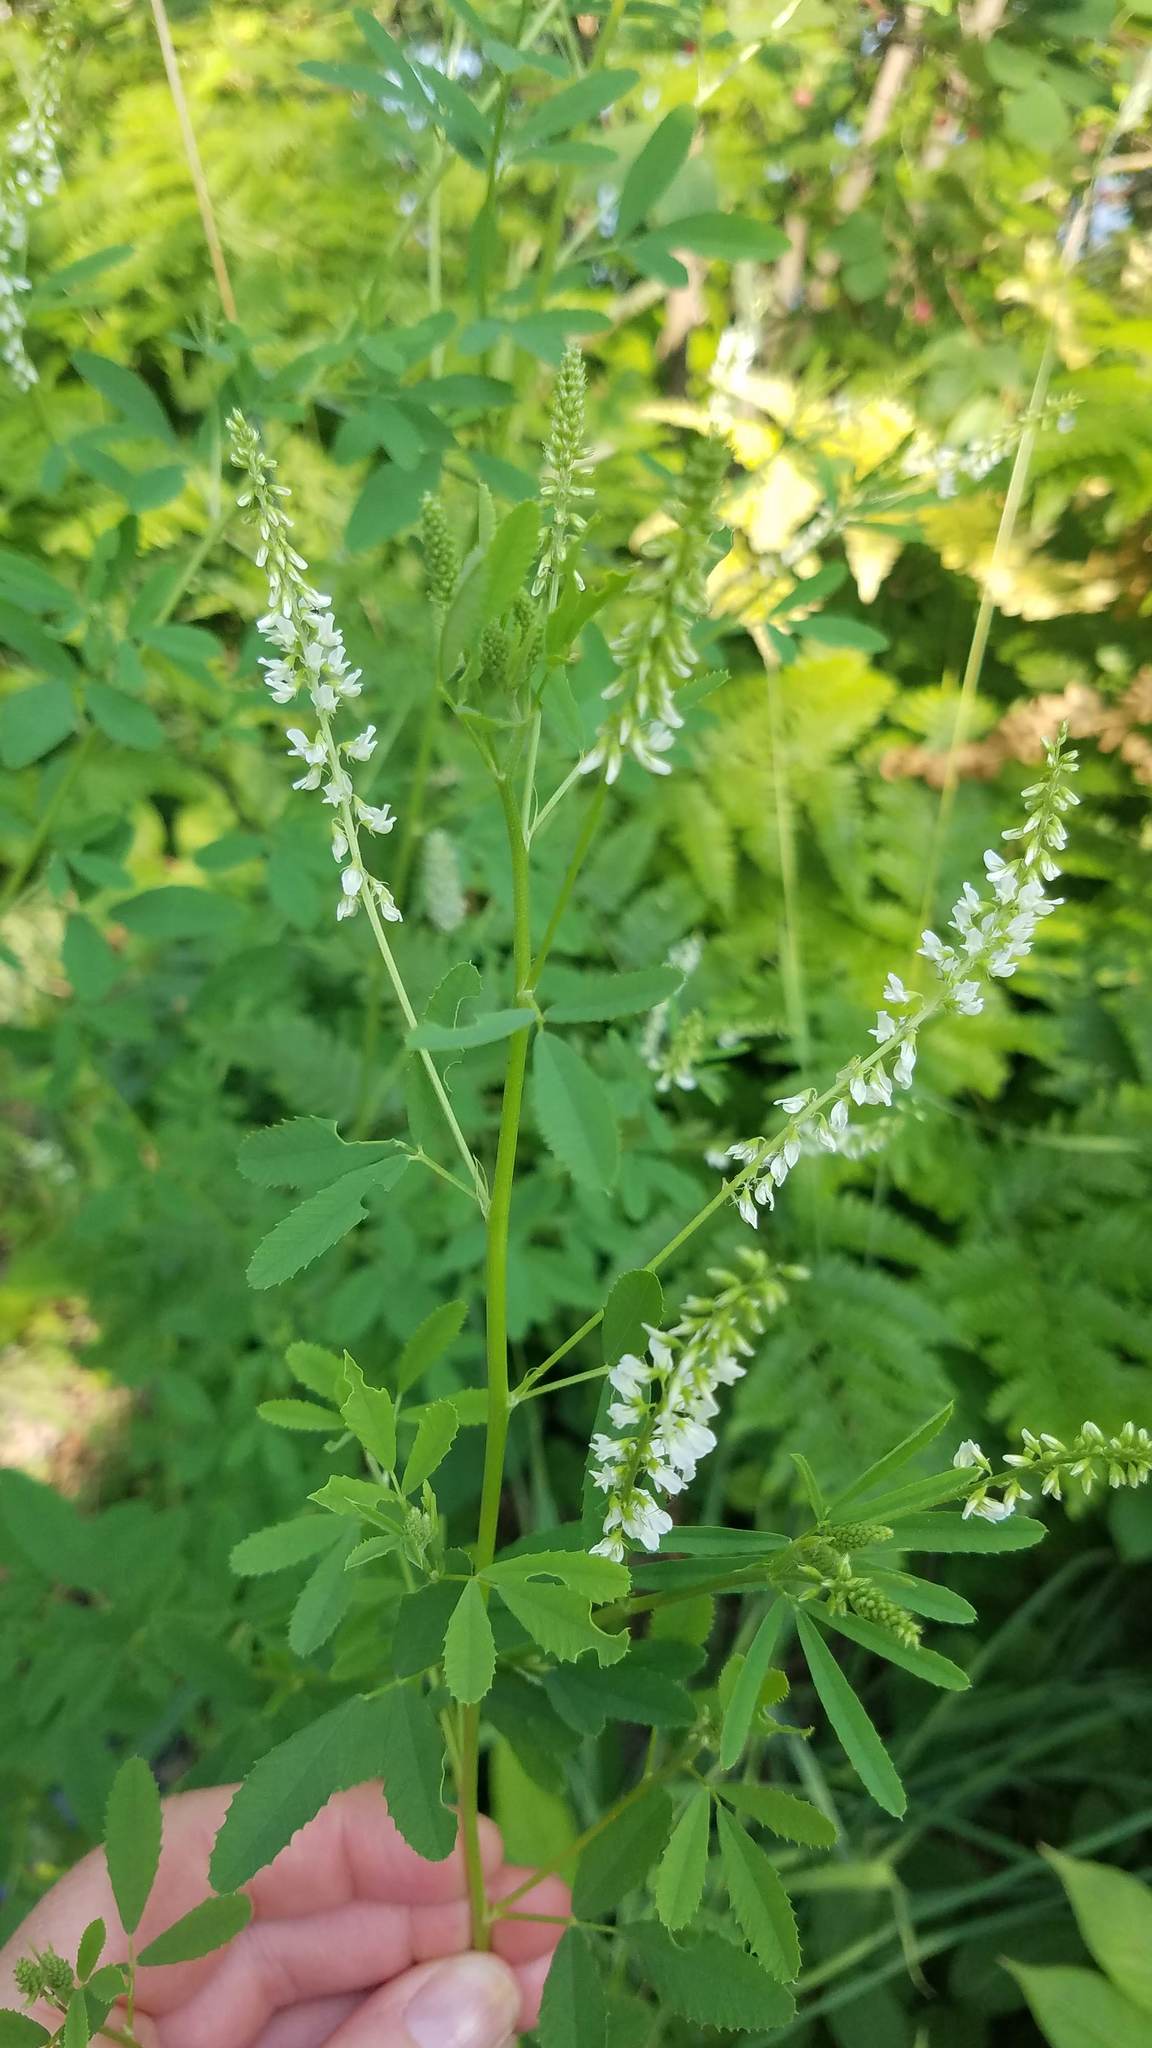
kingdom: Plantae
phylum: Tracheophyta
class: Magnoliopsida
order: Fabales
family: Fabaceae
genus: Melilotus
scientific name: Melilotus albus
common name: White melilot
